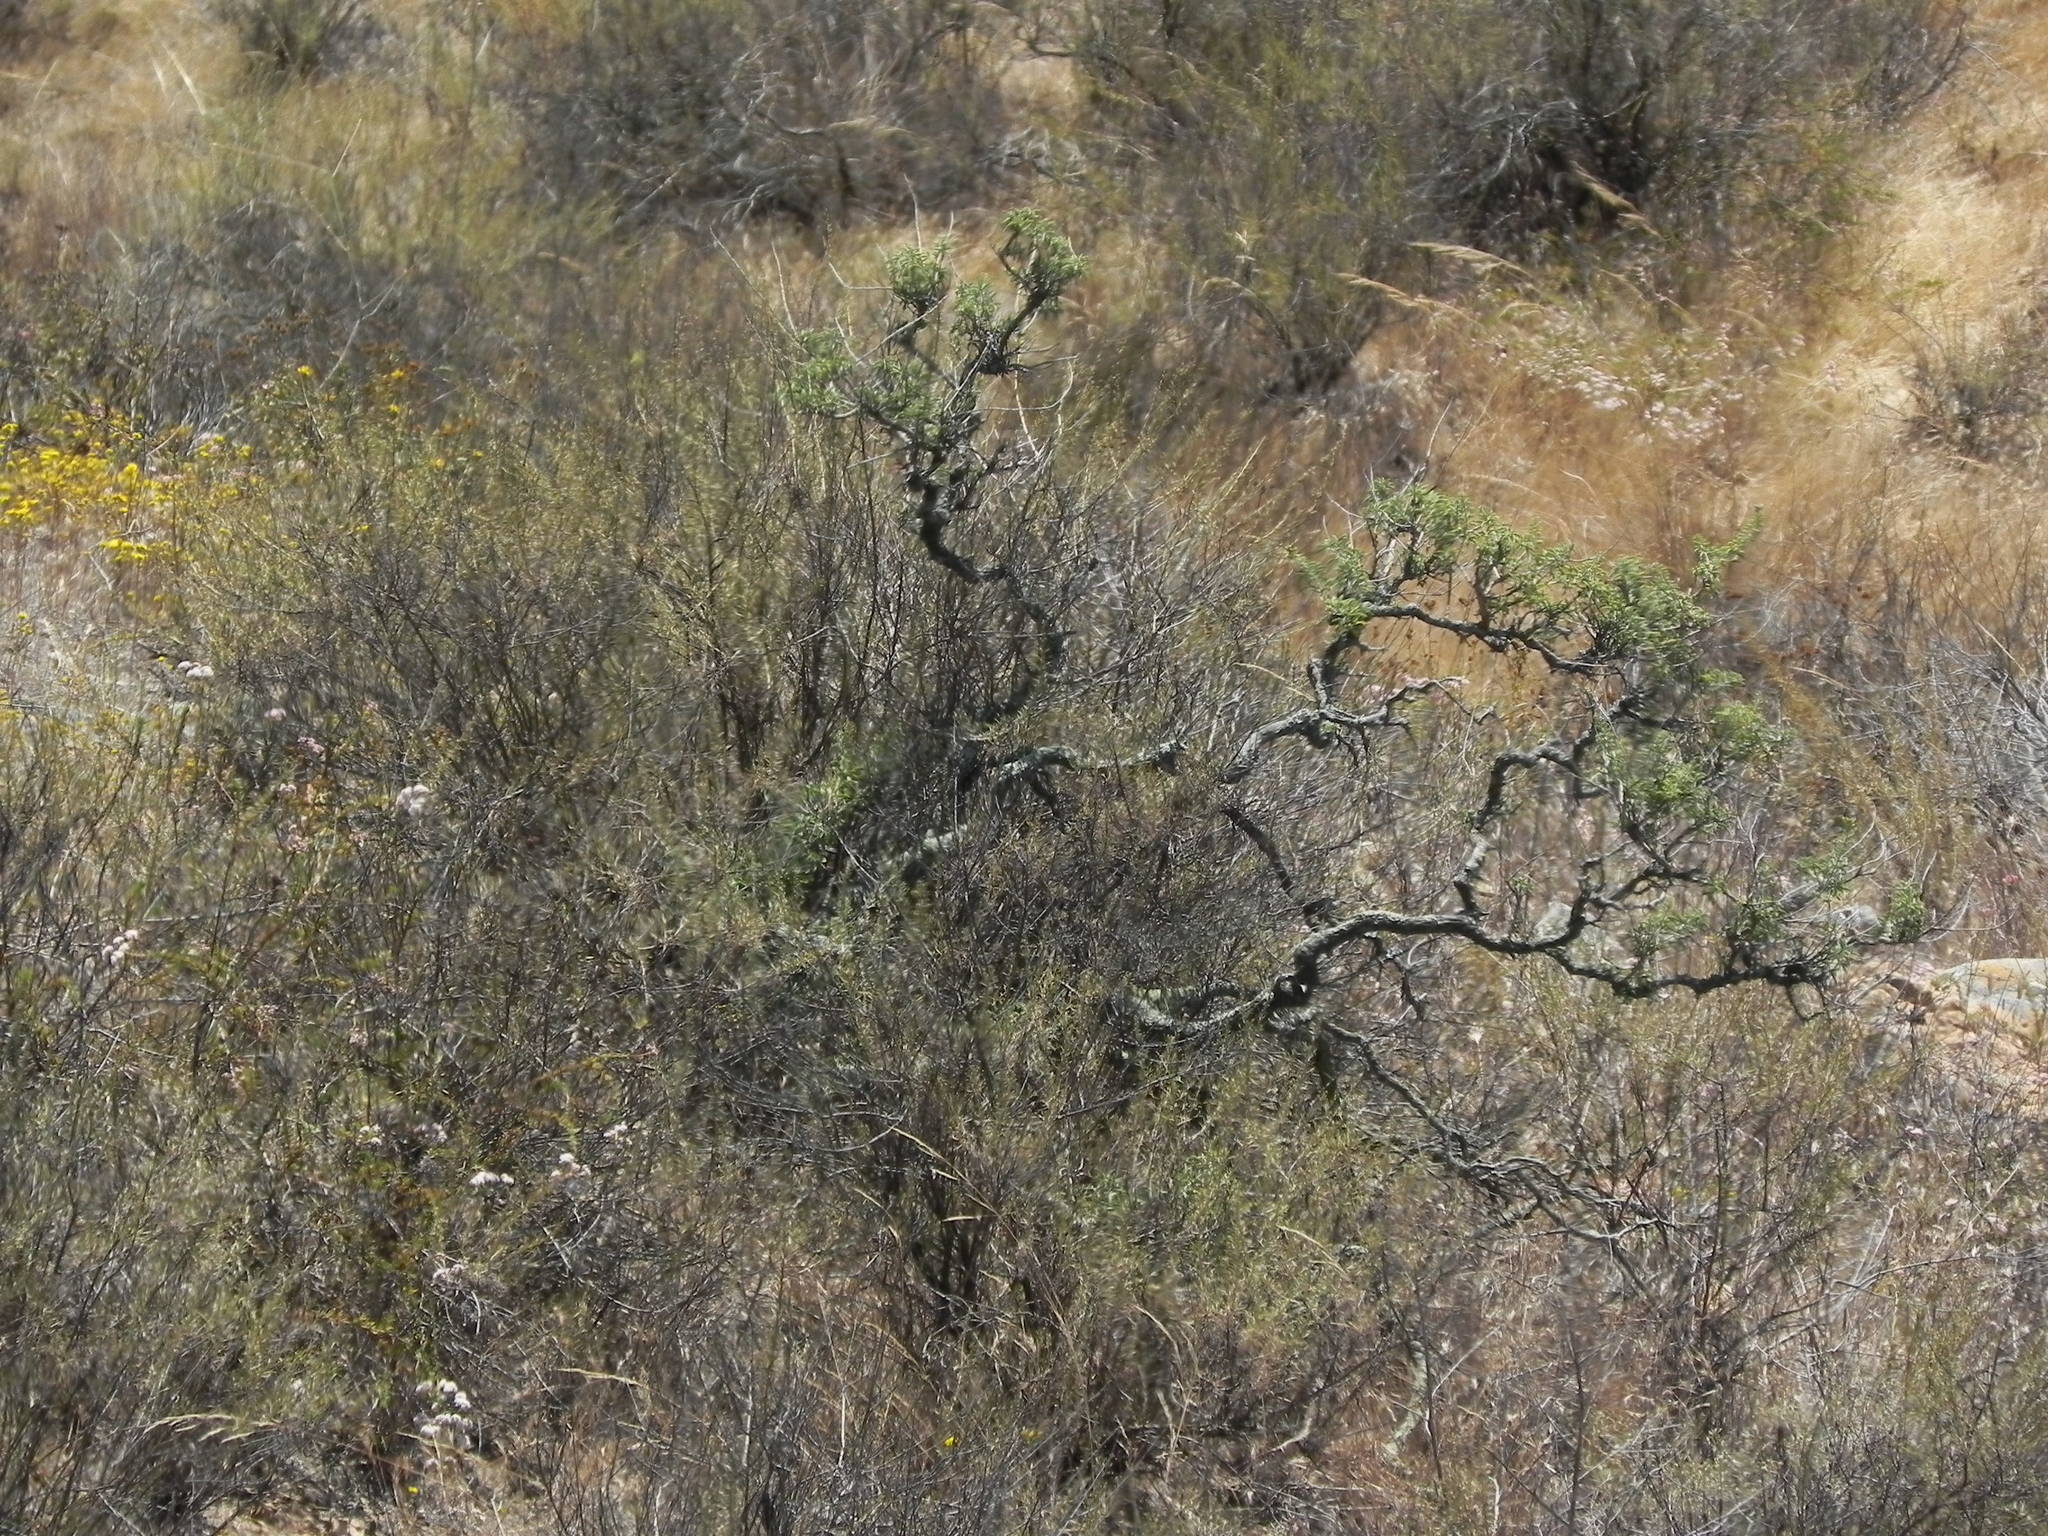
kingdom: Plantae
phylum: Tracheophyta
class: Magnoliopsida
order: Brassicales
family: Cleomaceae
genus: Cleomella
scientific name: Cleomella arborea
